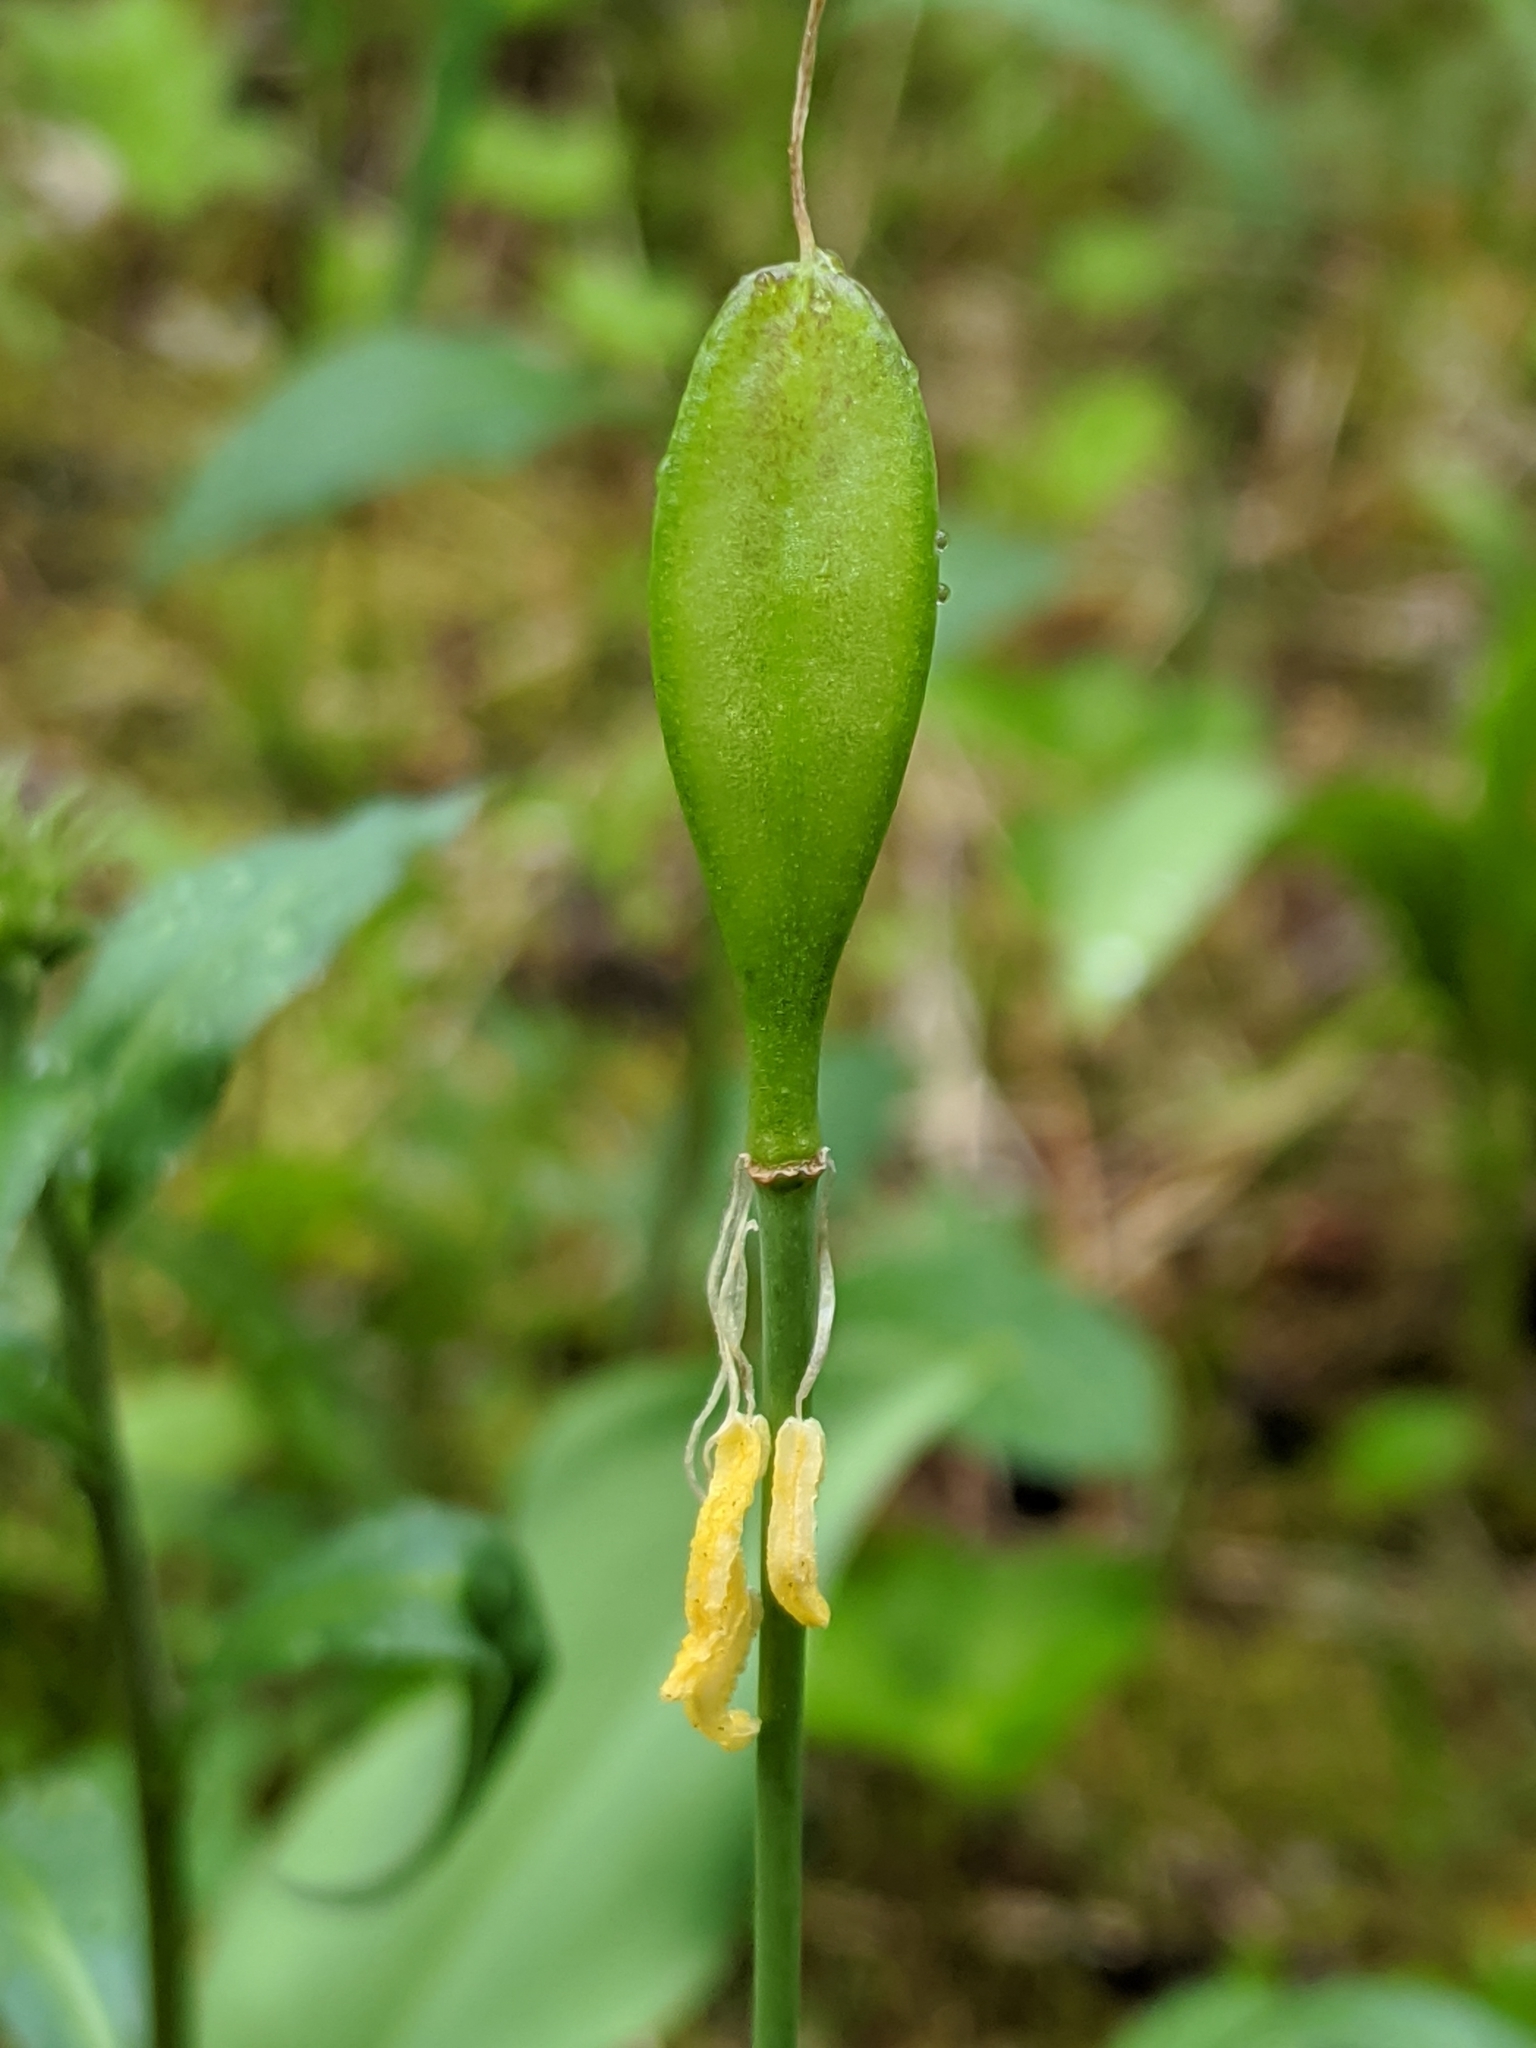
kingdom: Fungi
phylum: Ascomycota
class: Lecanoromycetes
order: Peltigerales
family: Peltigeraceae
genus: Peltigera
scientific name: Peltigera aphthosa
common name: Common freckle pelt lichen
